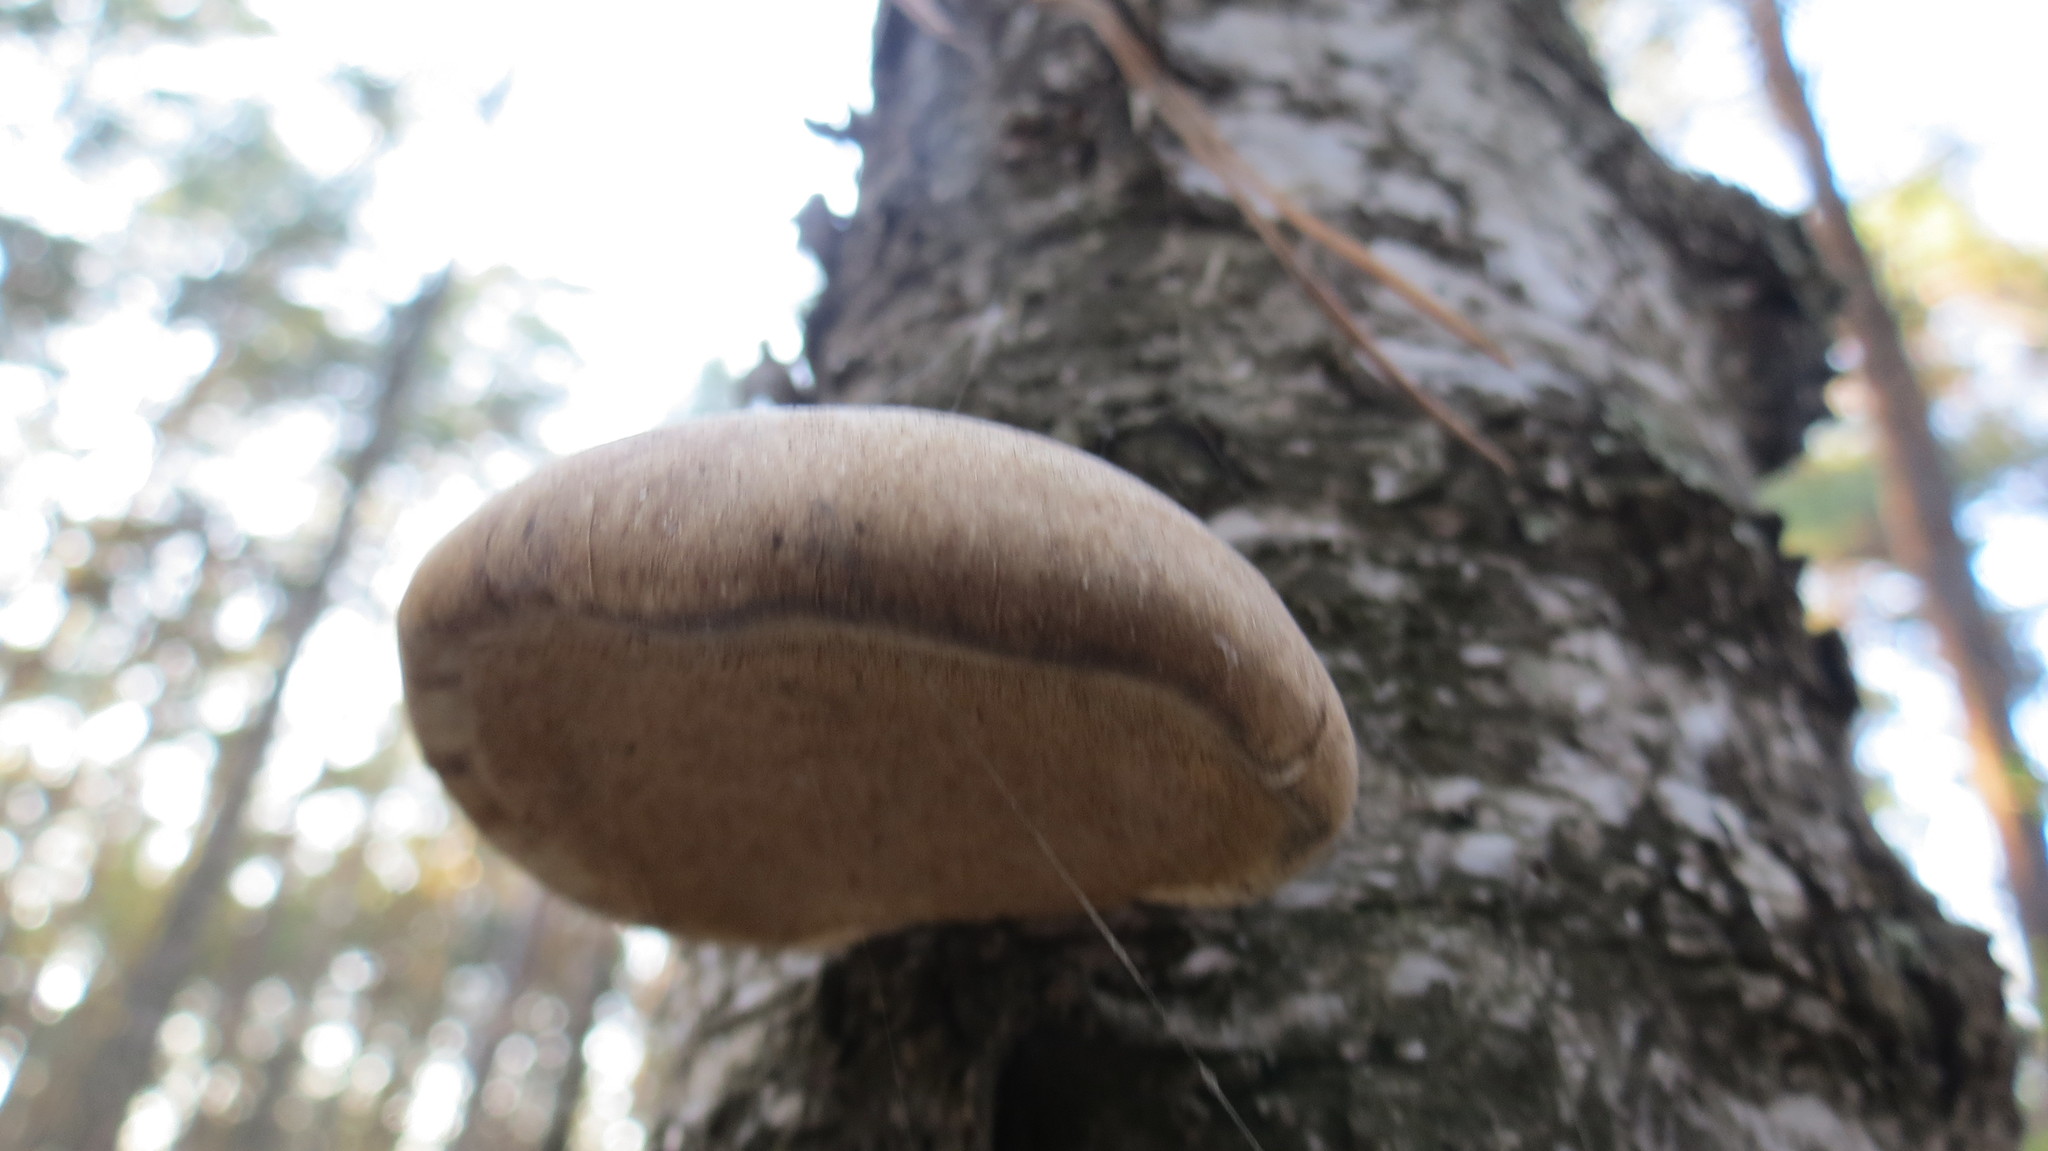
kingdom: Fungi
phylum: Basidiomycota
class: Agaricomycetes
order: Polyporales
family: Fomitopsidaceae
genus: Fomitopsis
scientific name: Fomitopsis betulina
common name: Birch polypore
